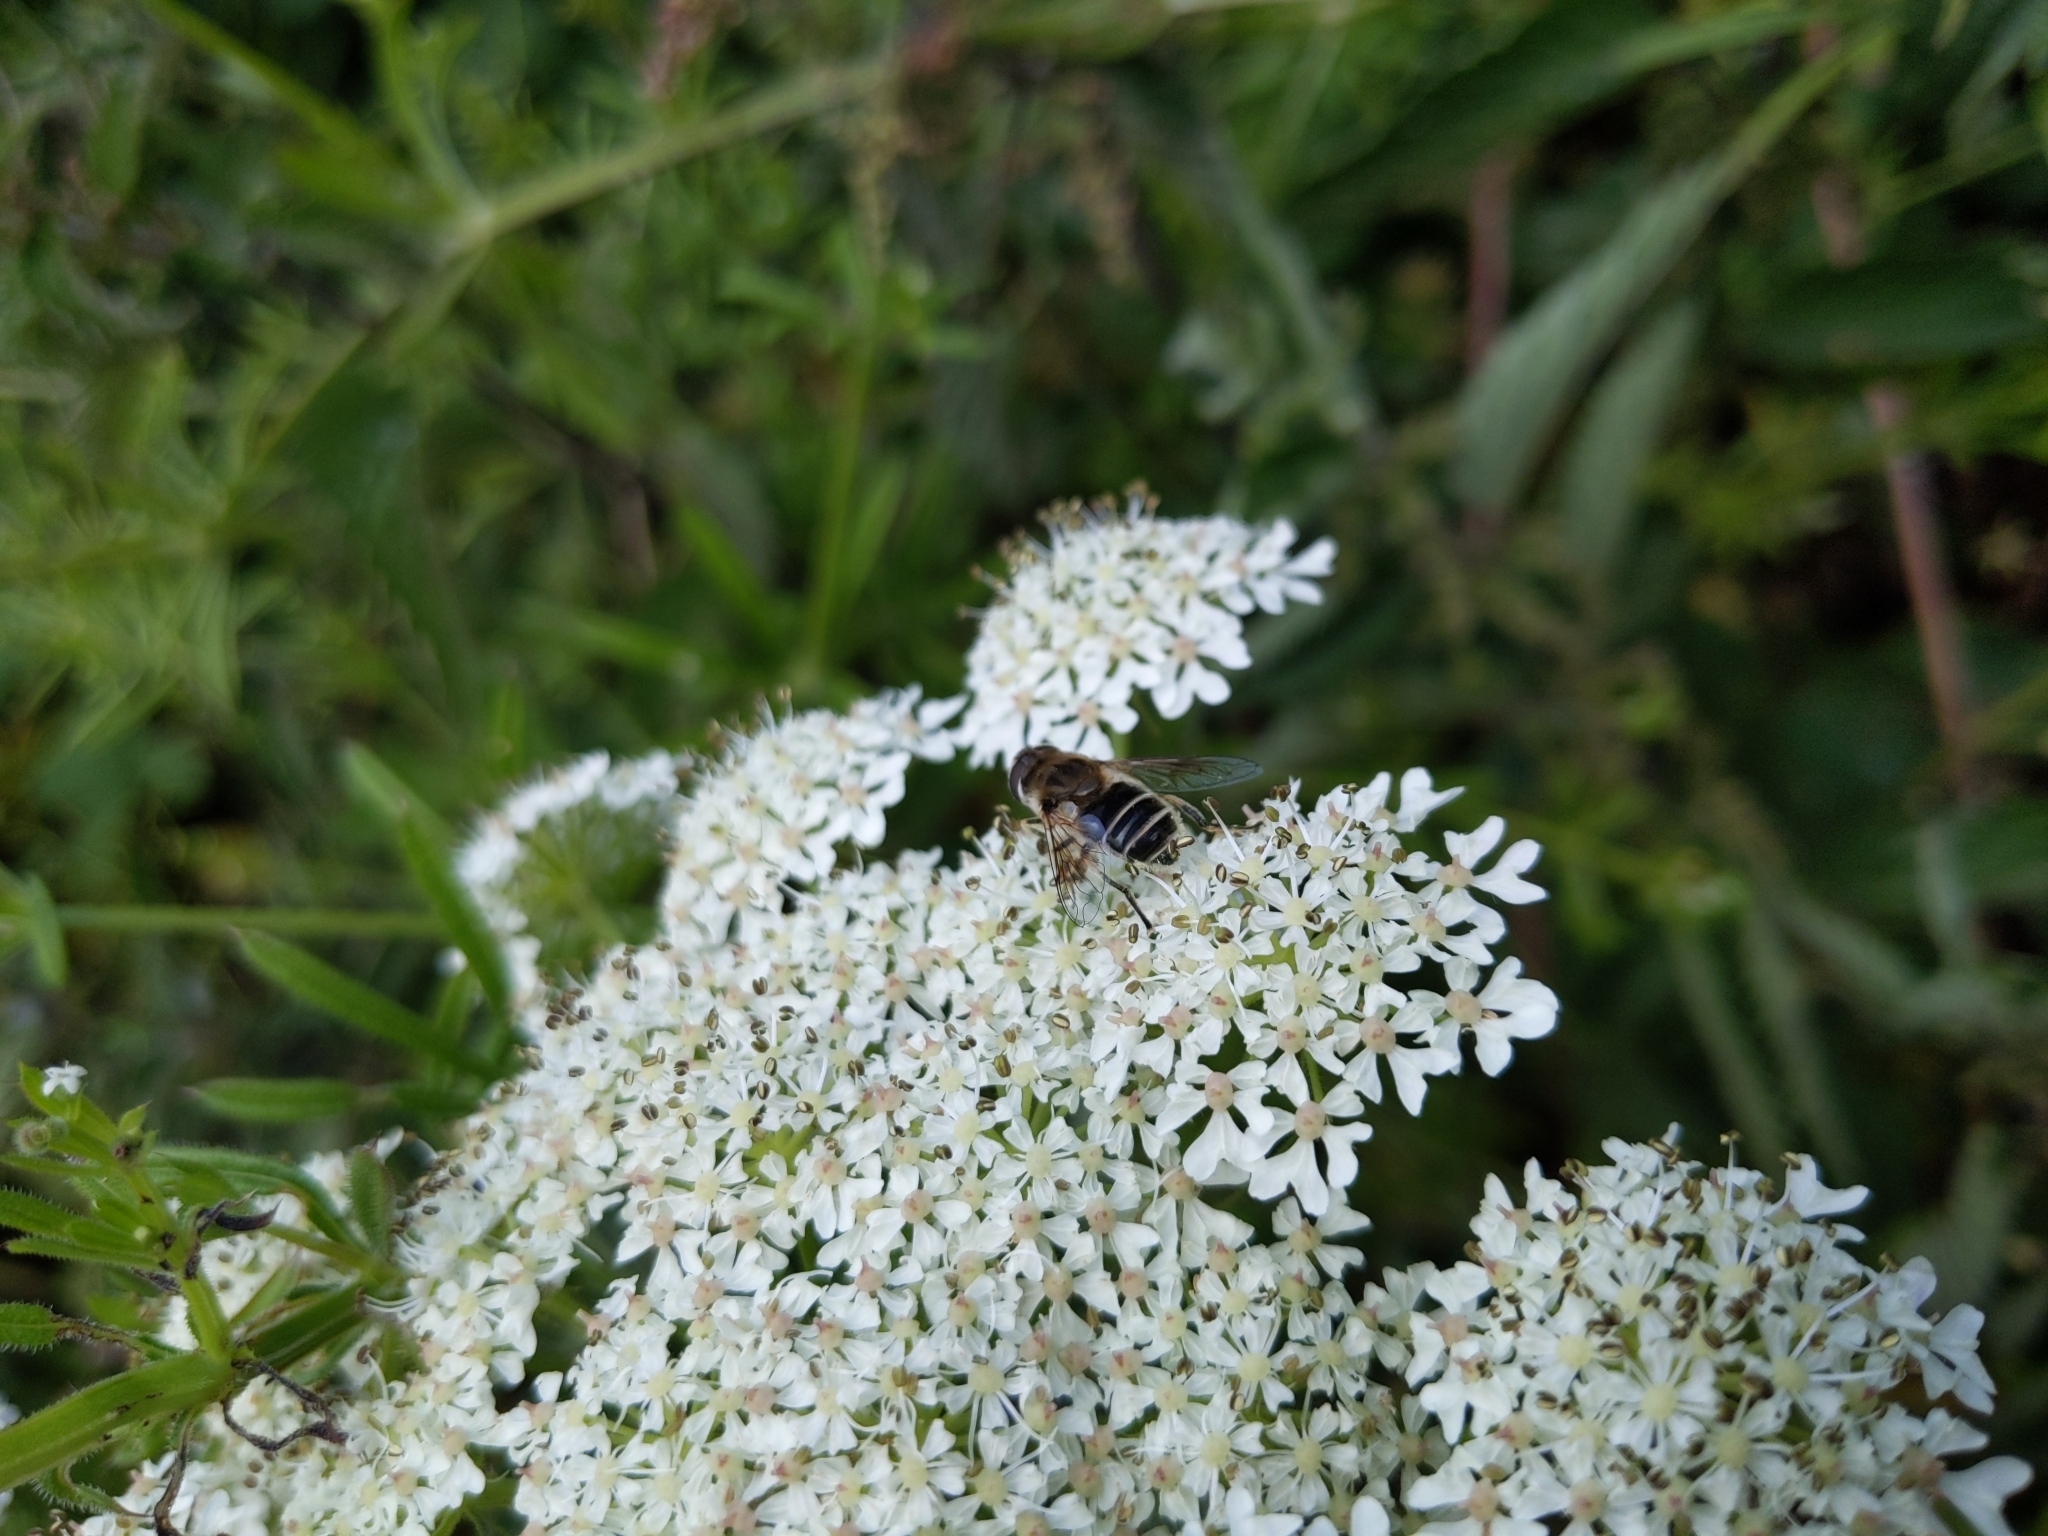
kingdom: Animalia
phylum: Arthropoda
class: Insecta
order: Diptera
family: Syrphidae
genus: Eoseristalis
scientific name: Eoseristalis
